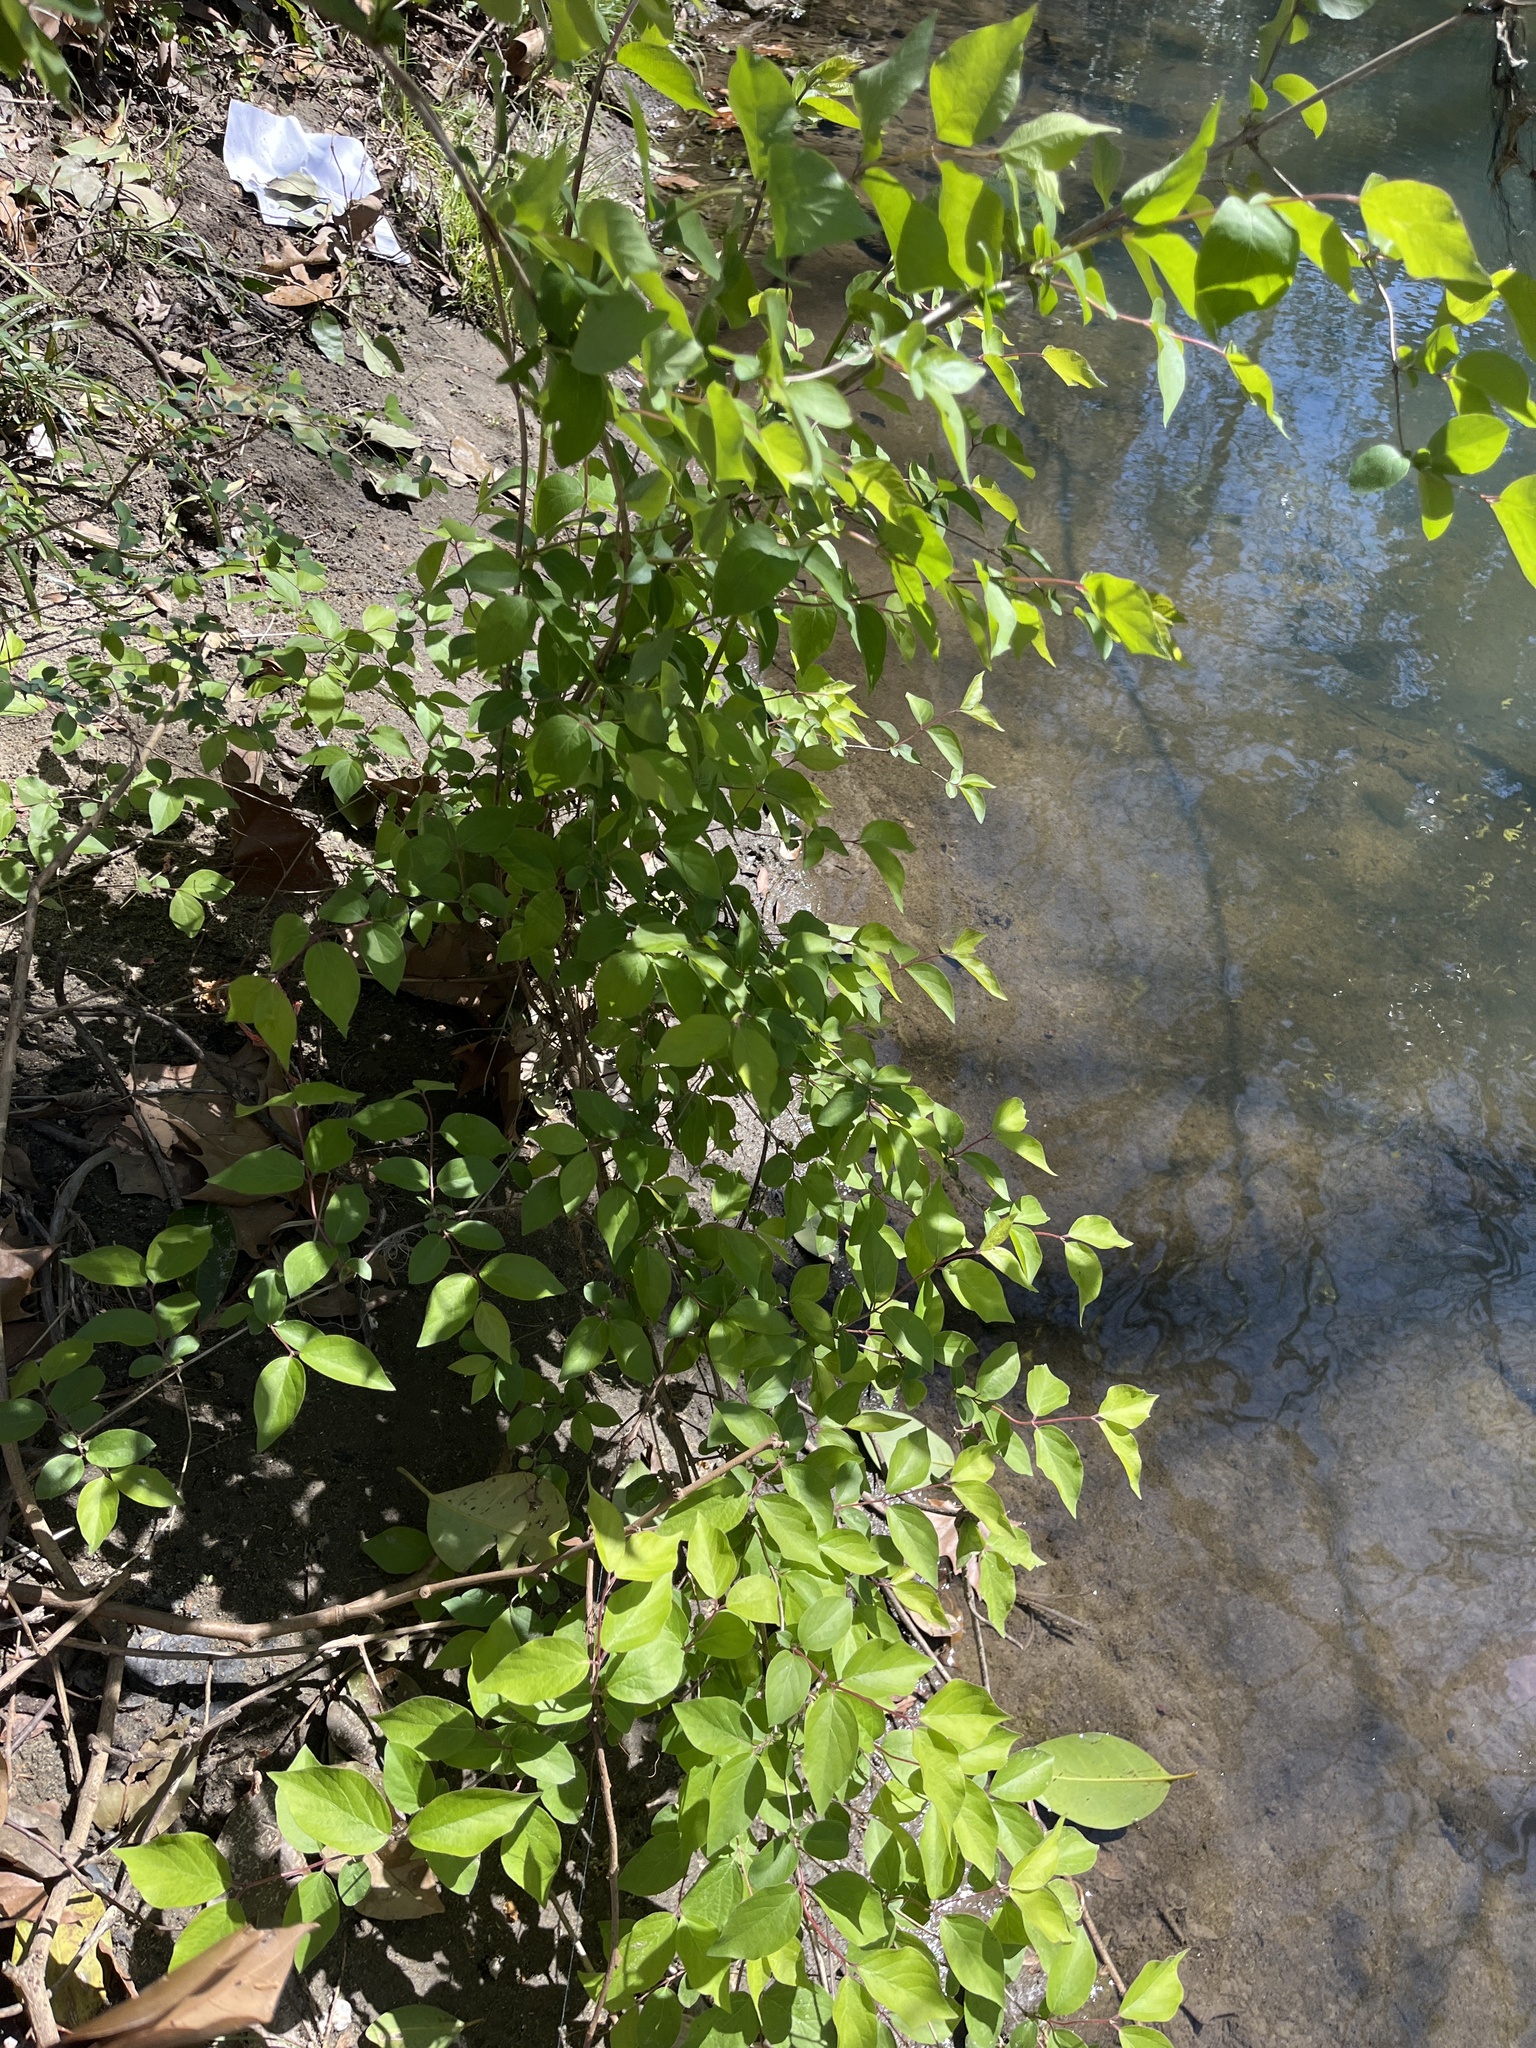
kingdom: Plantae
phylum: Tracheophyta
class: Magnoliopsida
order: Dipsacales
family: Caprifoliaceae
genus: Lonicera
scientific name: Lonicera maackii
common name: Amur honeysuckle
